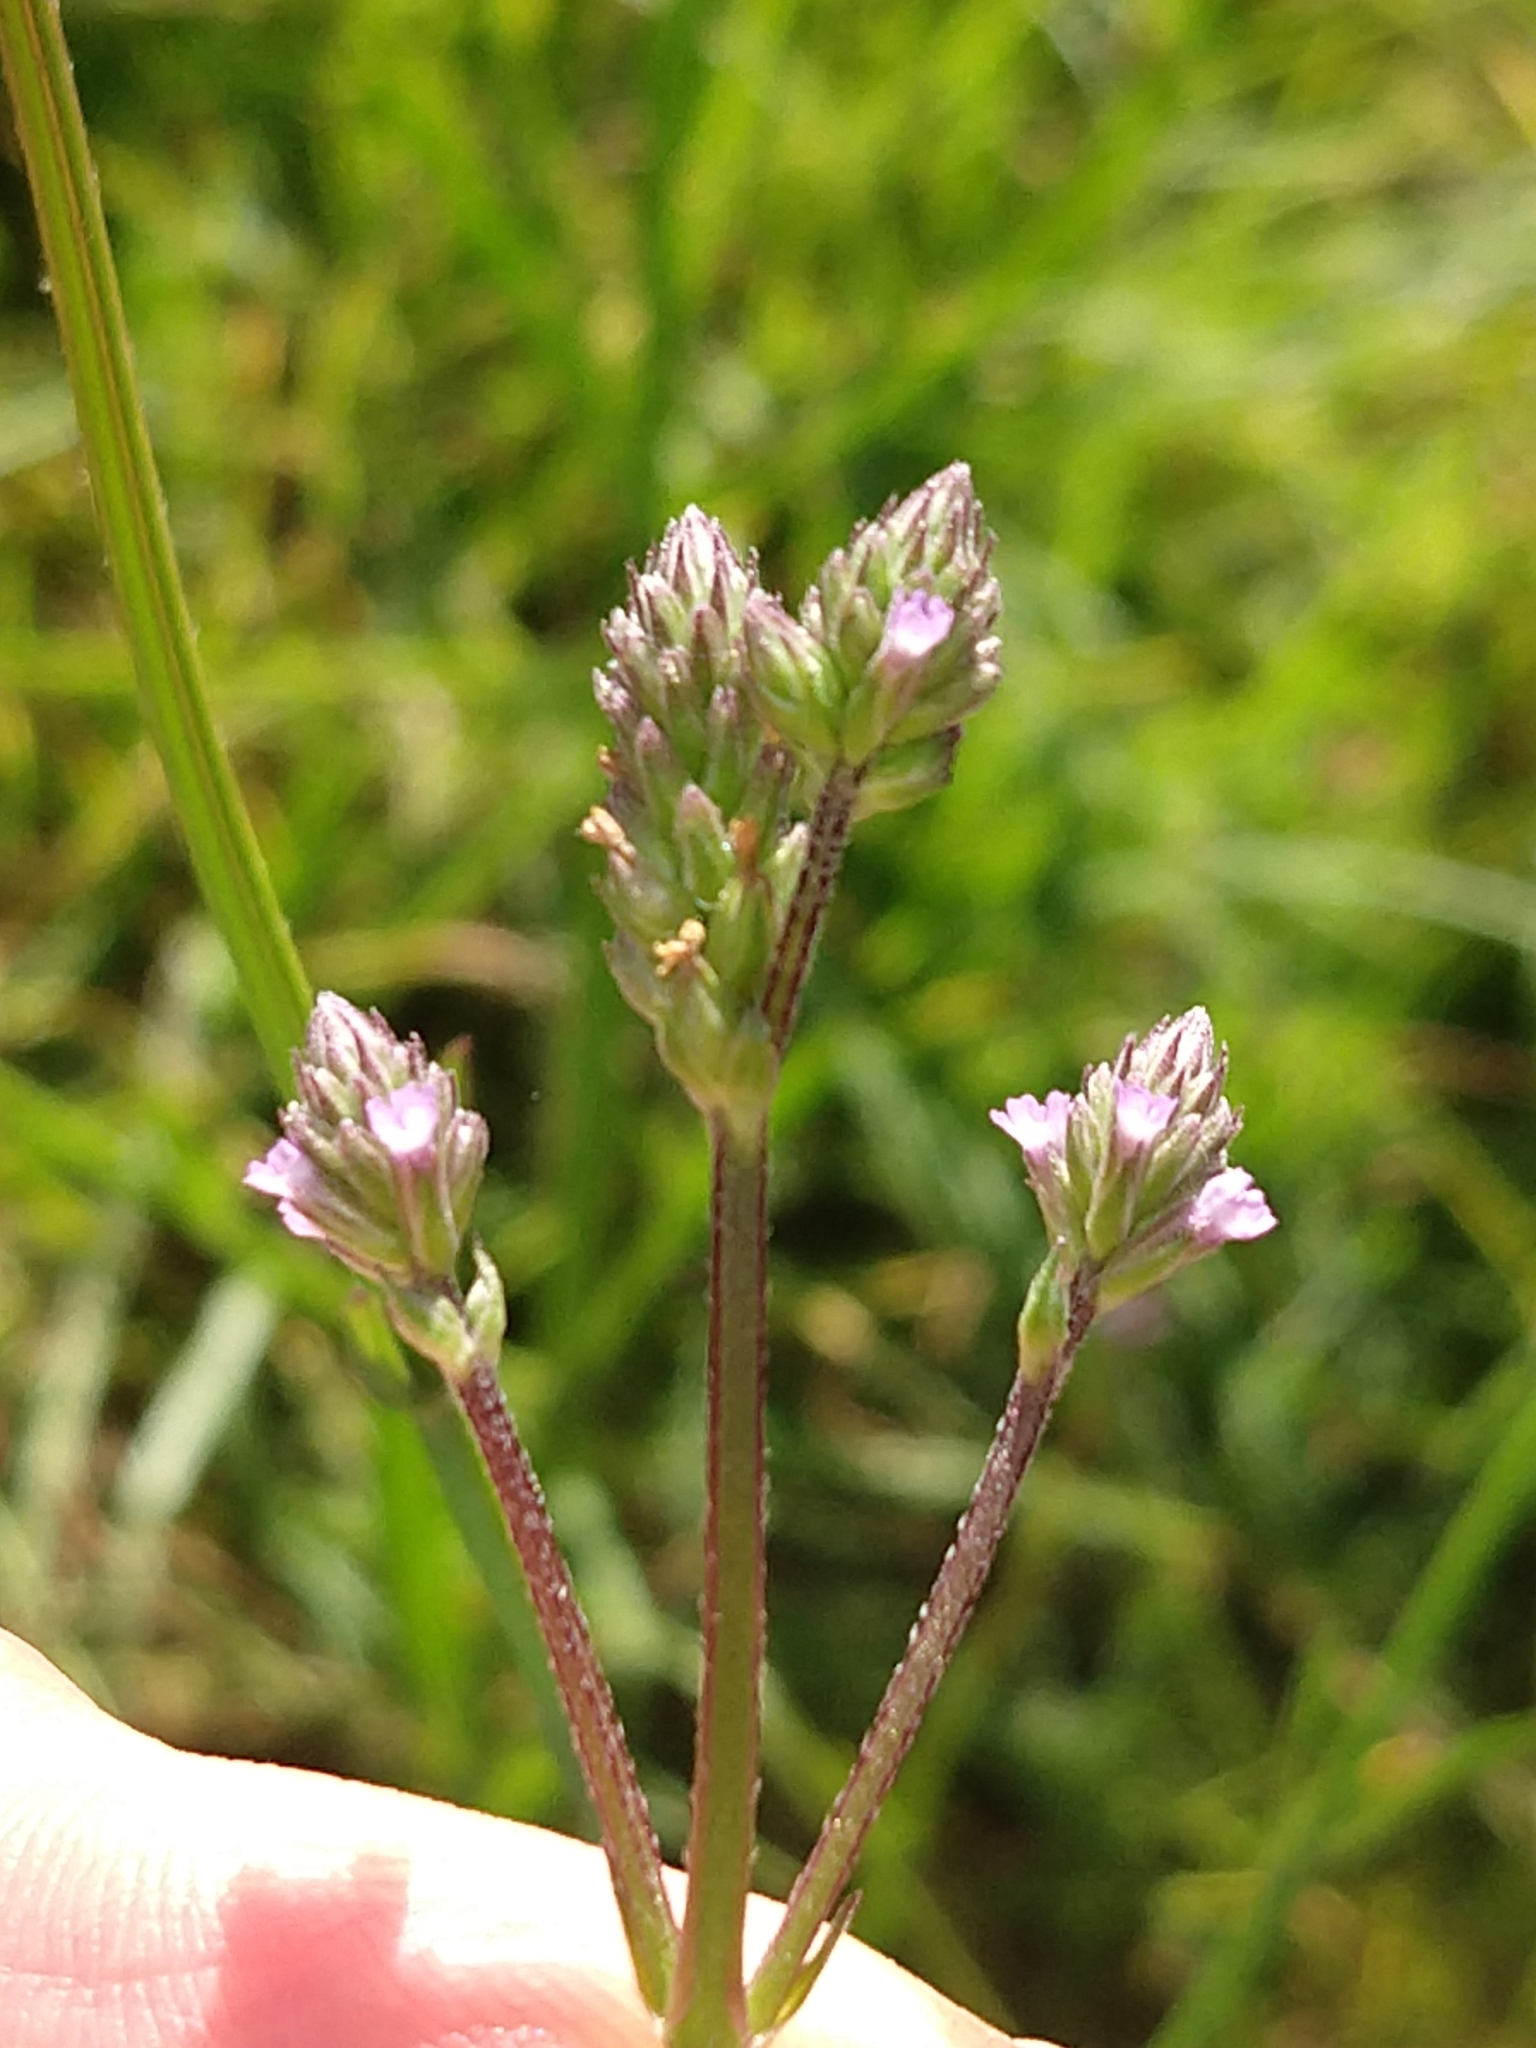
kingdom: Plantae
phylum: Tracheophyta
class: Magnoliopsida
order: Lamiales
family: Verbenaceae
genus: Verbena
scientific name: Verbena litoralis
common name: Seashore vervain
